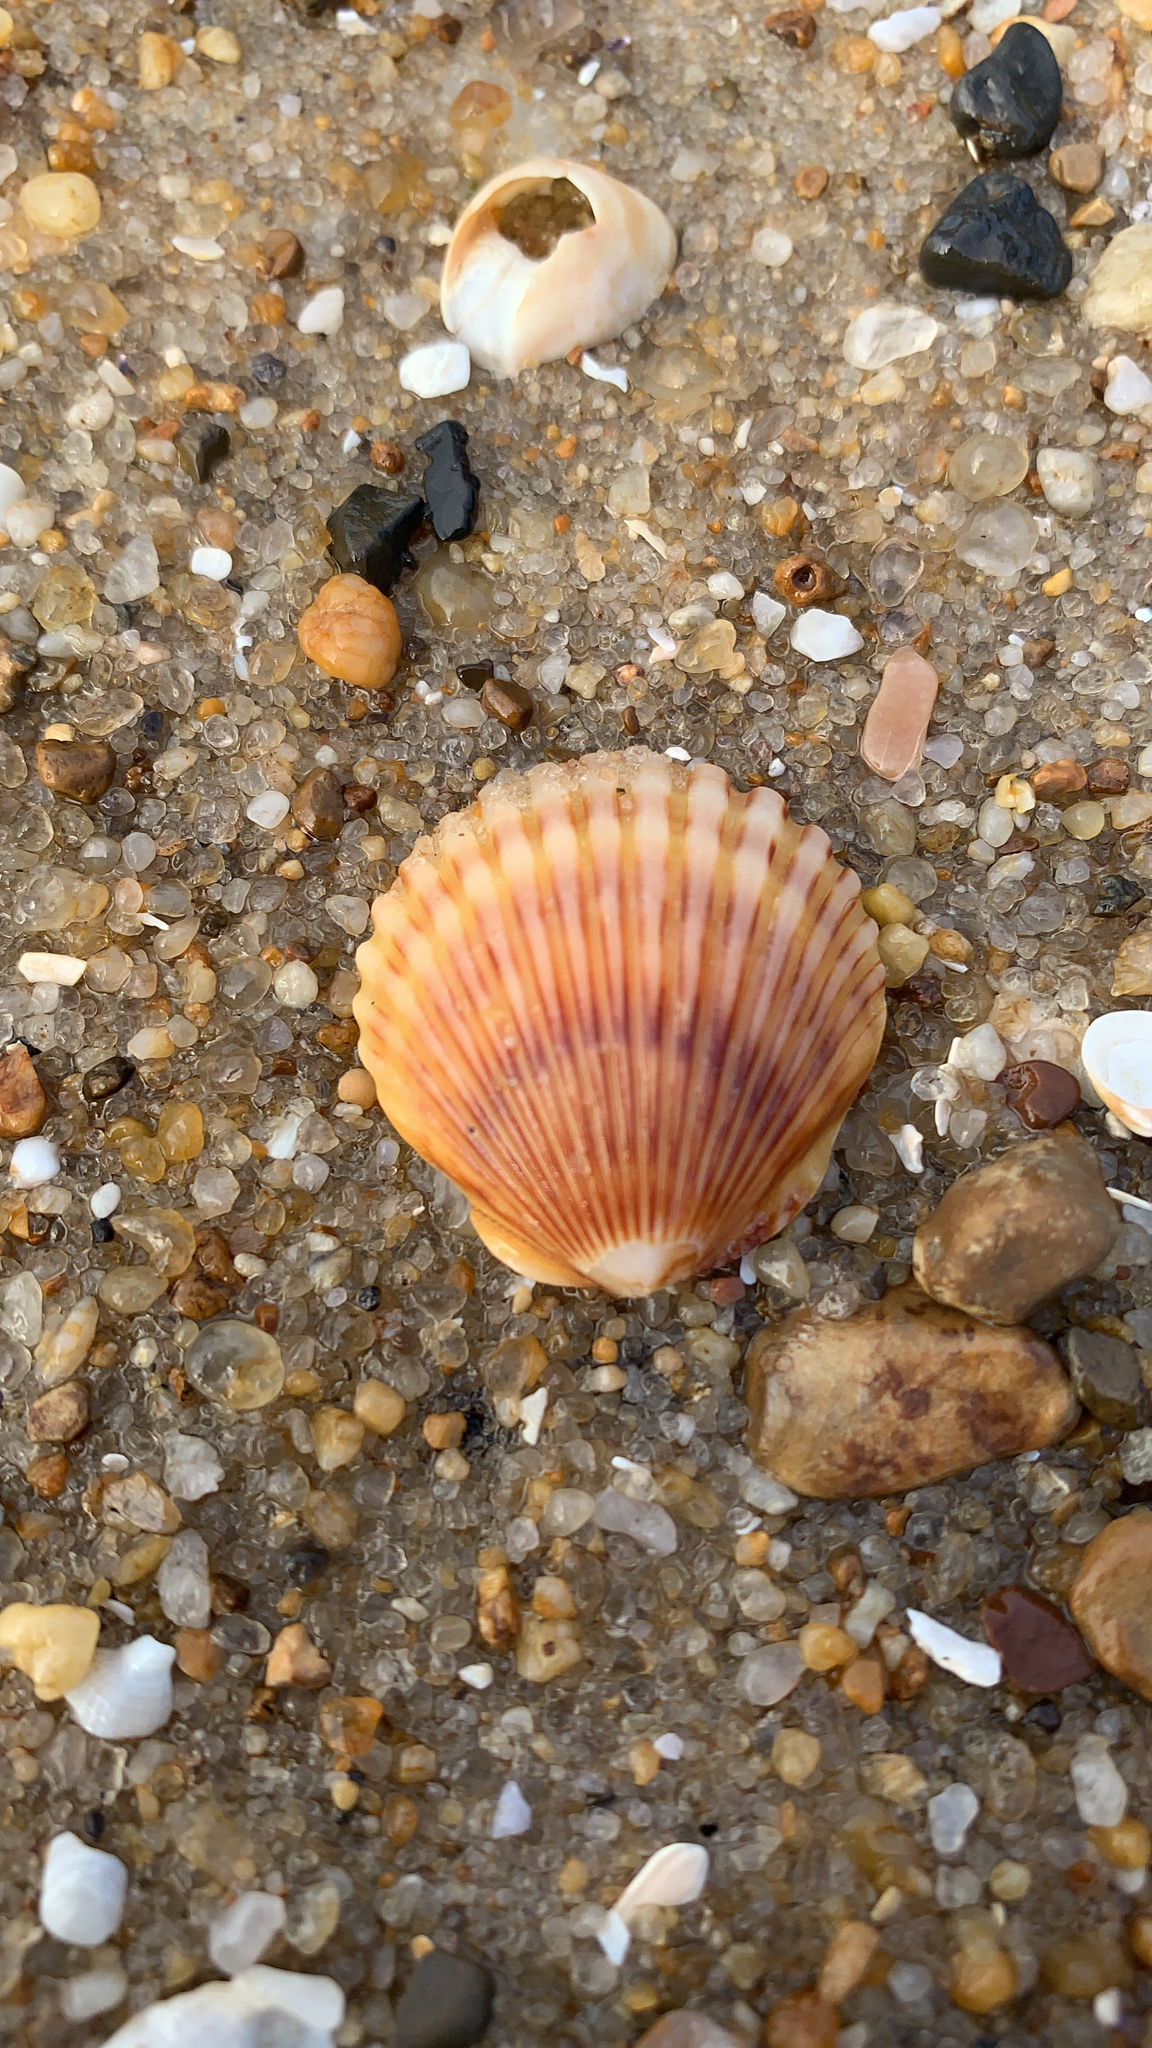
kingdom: Animalia
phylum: Mollusca
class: Bivalvia
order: Pectinida
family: Pectinidae
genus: Argopecten
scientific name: Argopecten irradians
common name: Atlantic bay scallop
